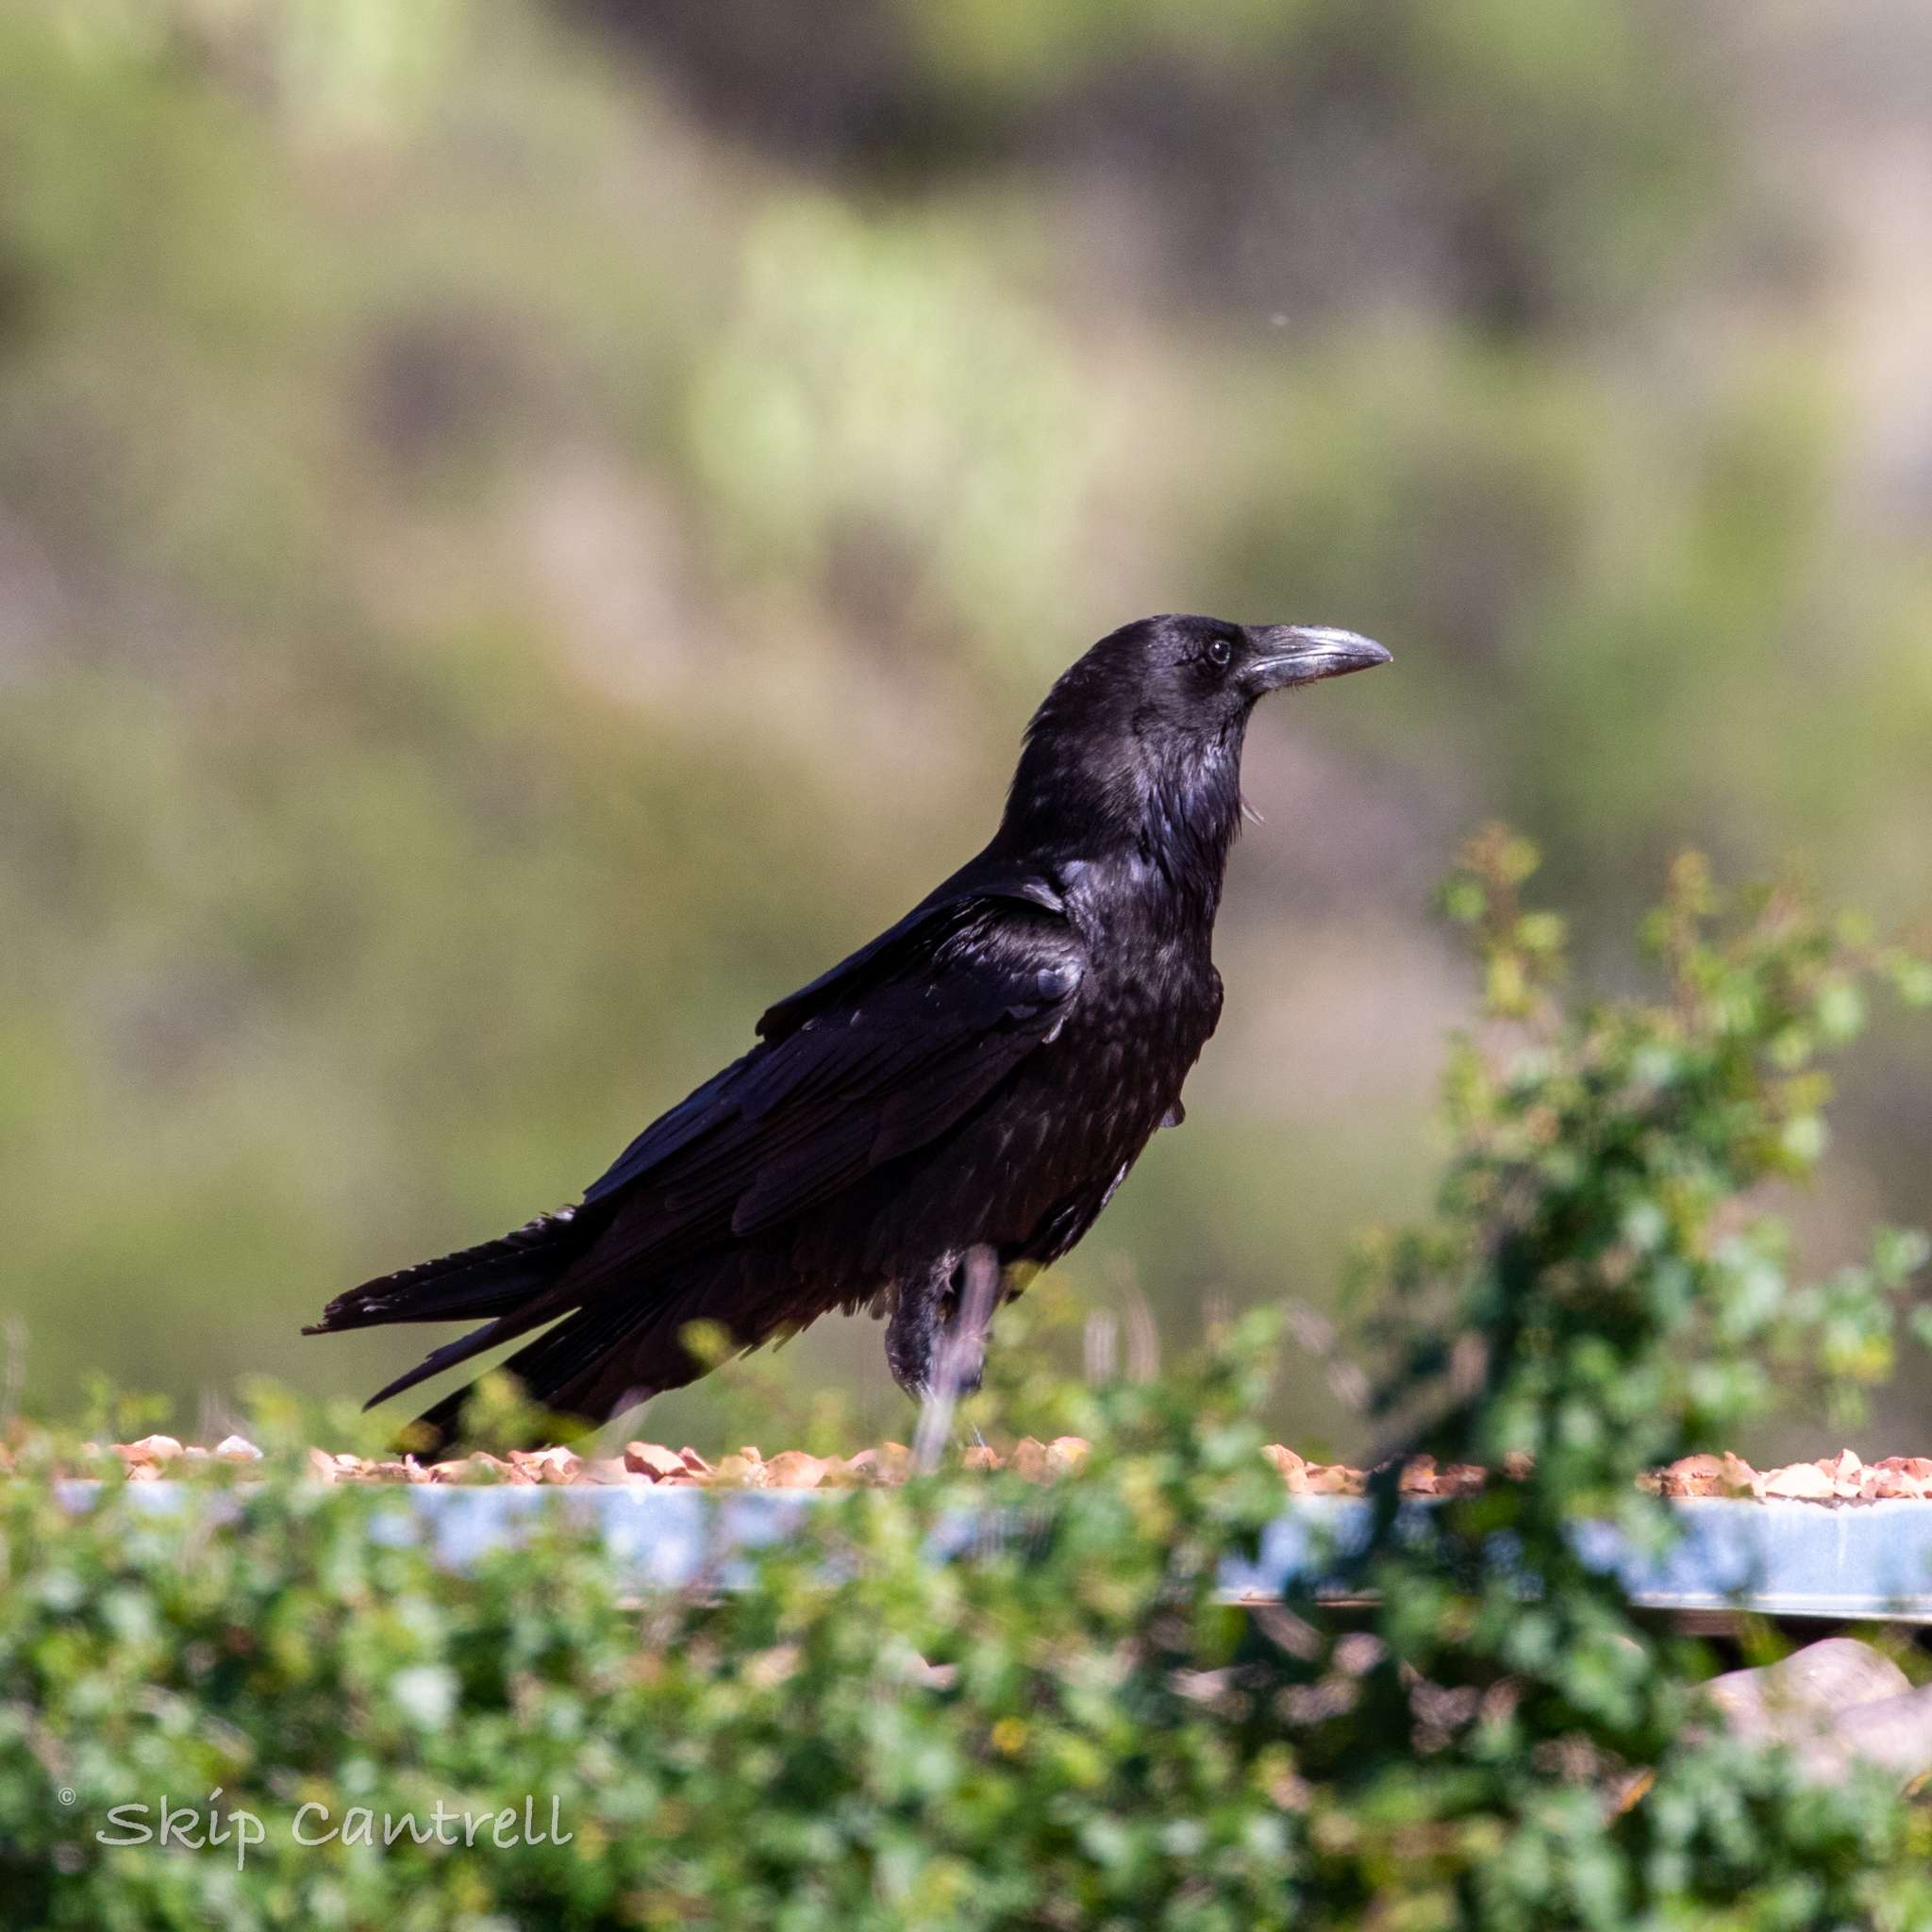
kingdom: Animalia
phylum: Chordata
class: Aves
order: Passeriformes
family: Corvidae
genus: Corvus
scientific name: Corvus corax
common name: Common raven
